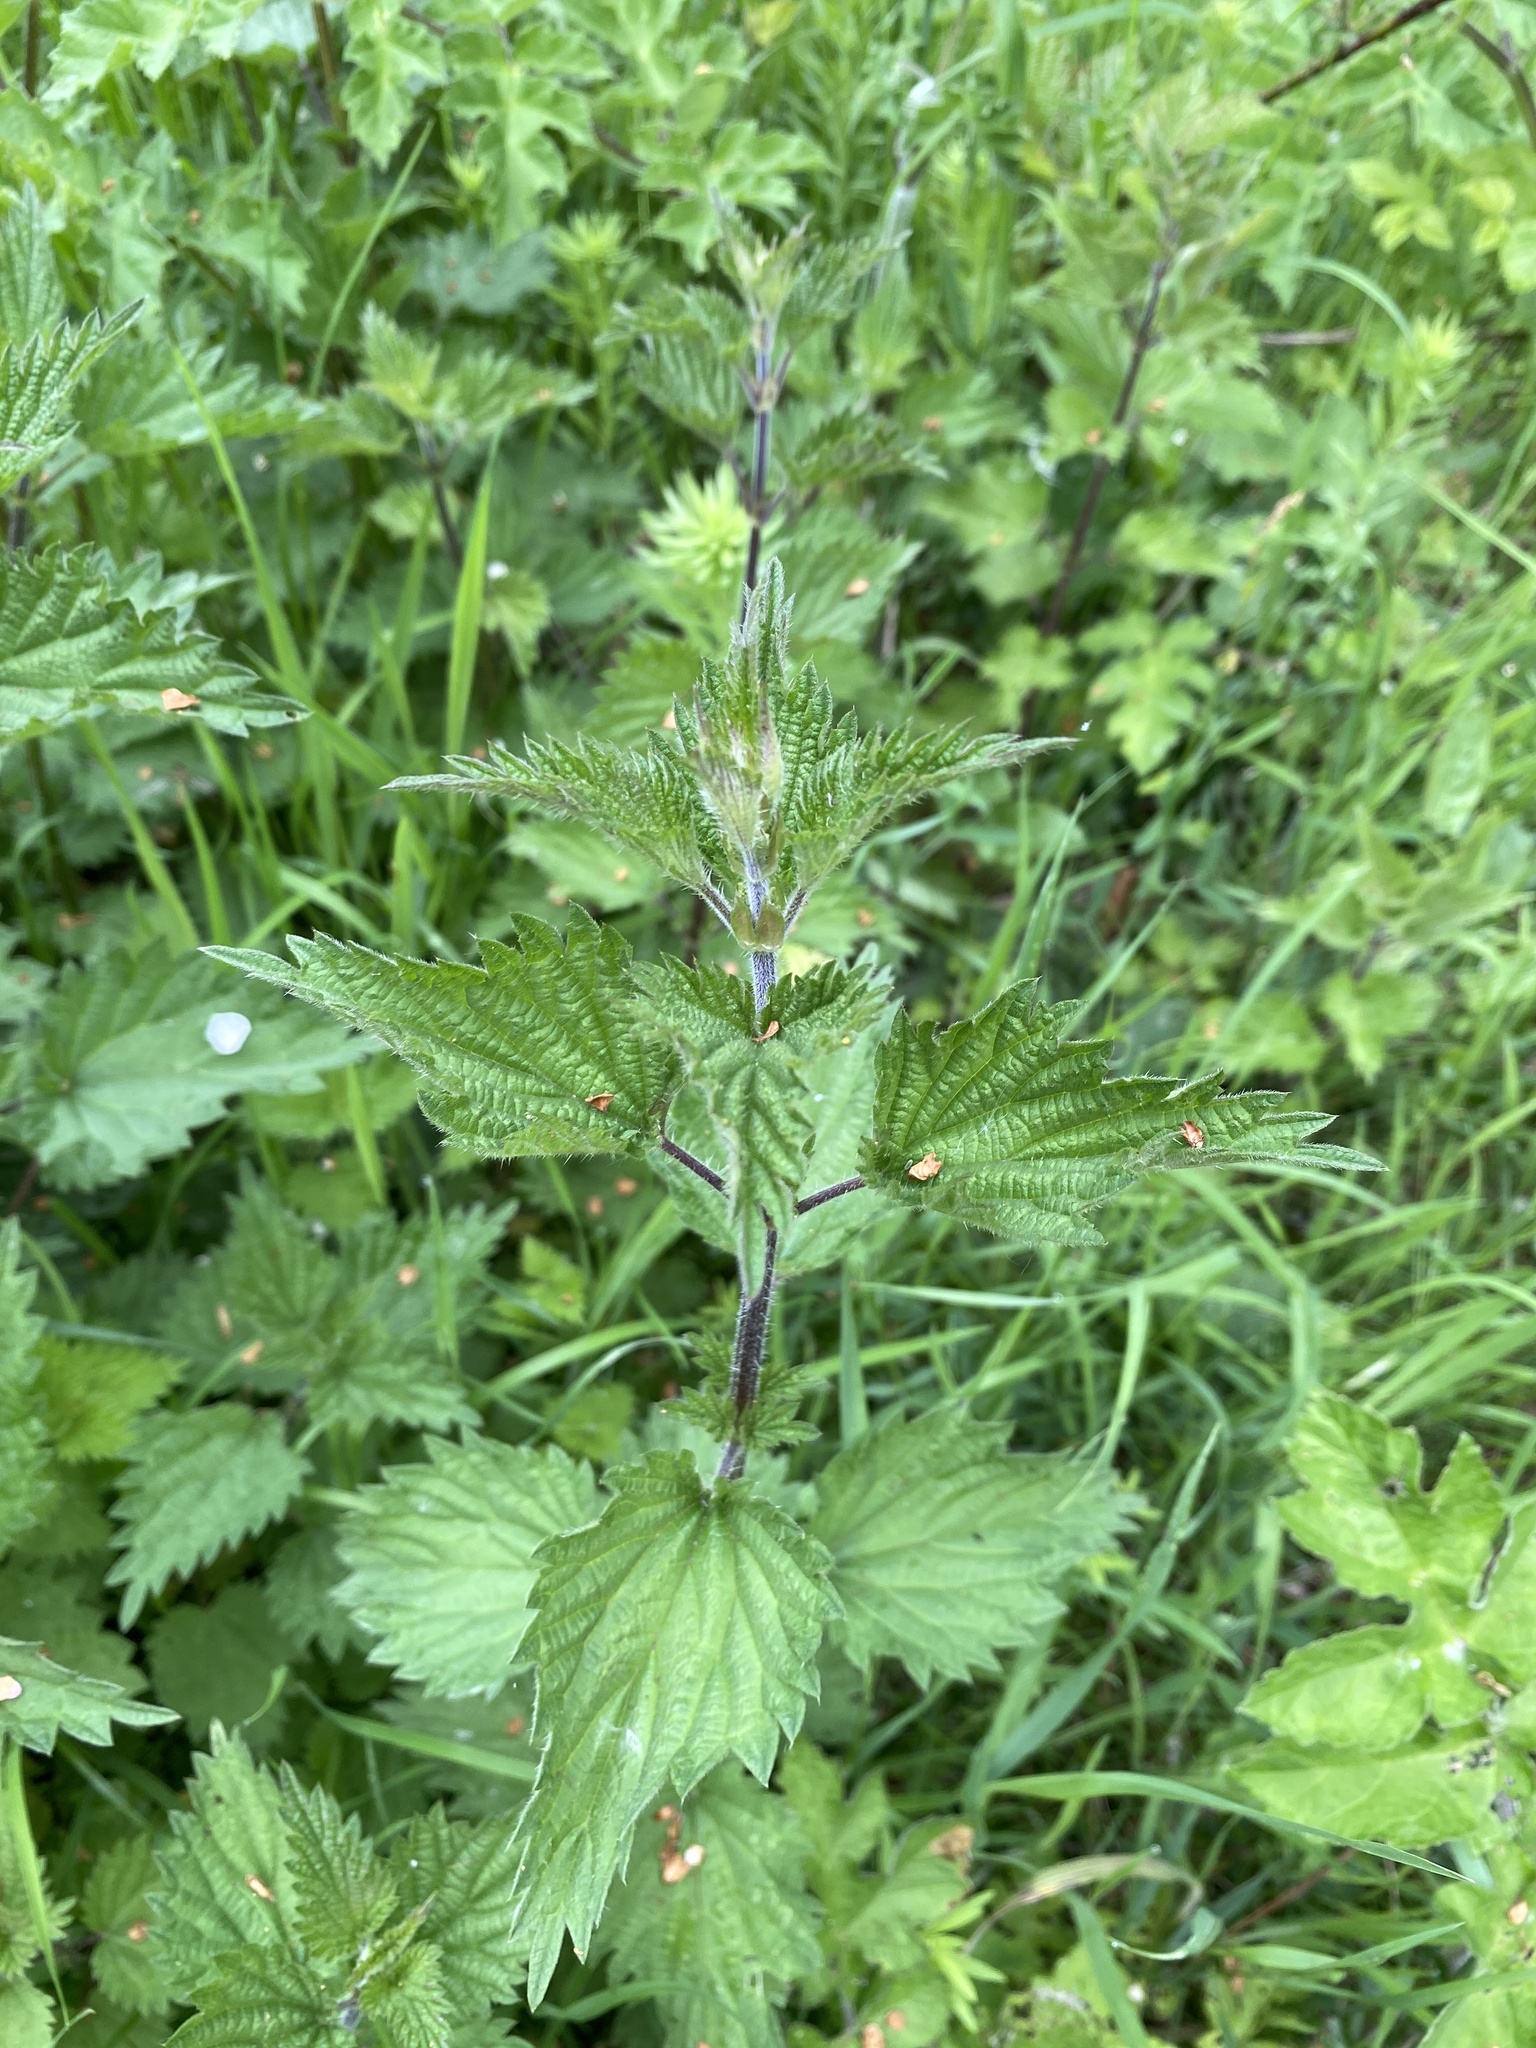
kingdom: Plantae
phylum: Tracheophyta
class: Magnoliopsida
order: Rosales
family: Urticaceae
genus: Urtica
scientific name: Urtica dioica
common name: Common nettle
